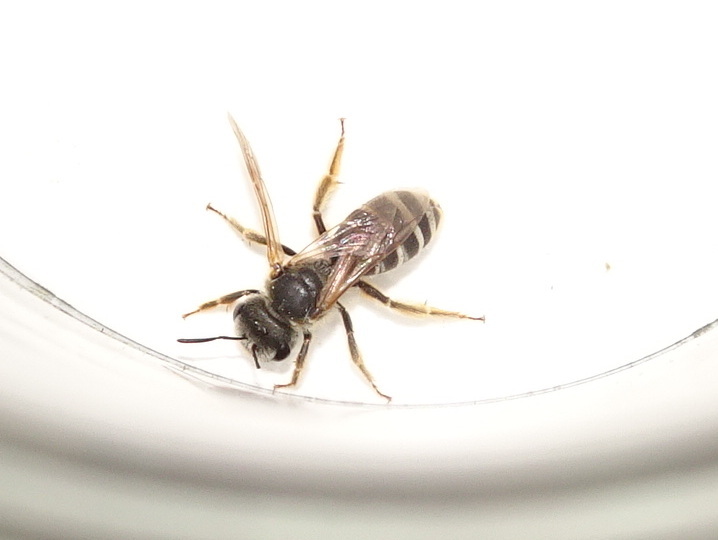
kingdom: Animalia
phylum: Arthropoda
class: Insecta
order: Hymenoptera
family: Halictidae
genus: Halictus
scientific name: Halictus ligatus
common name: Ligated furrow bee
